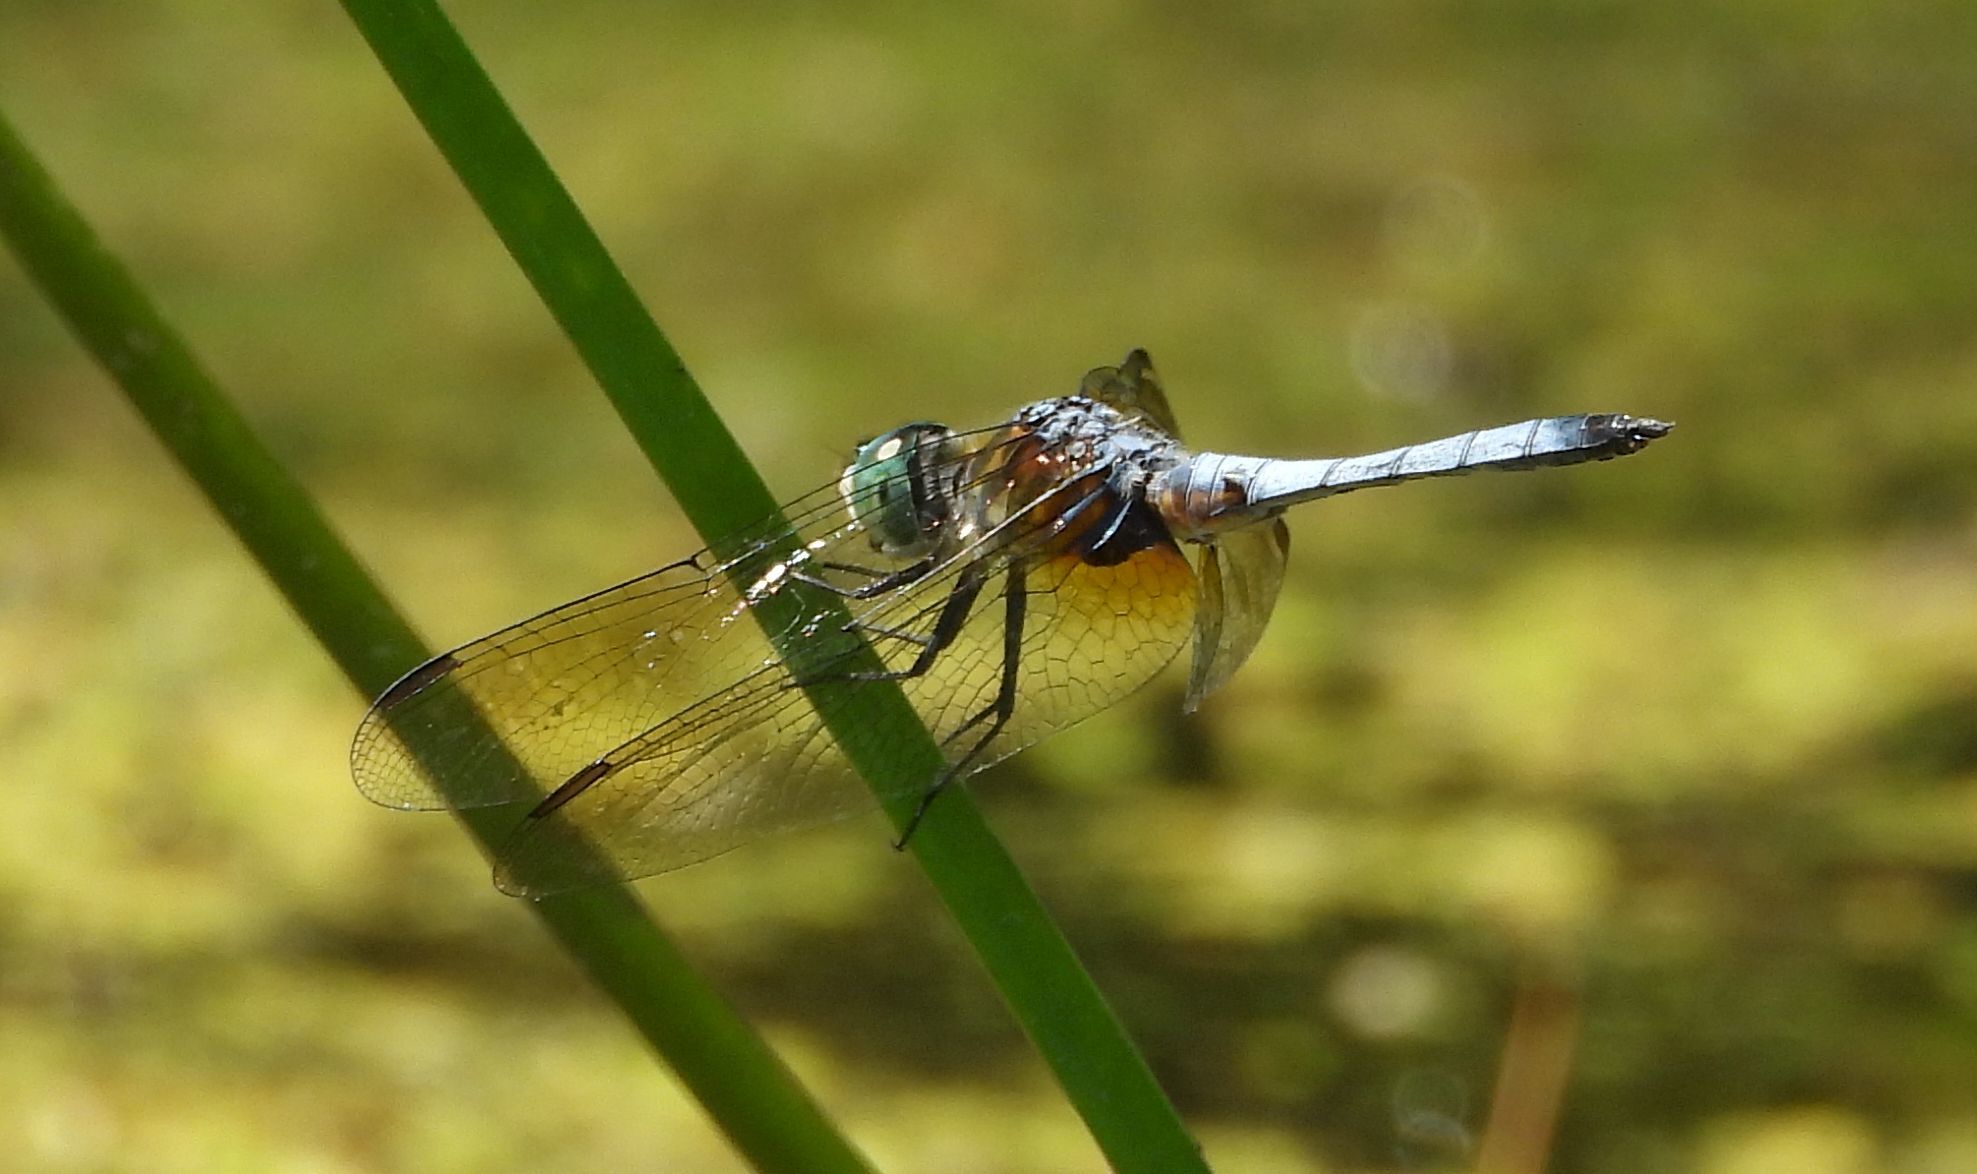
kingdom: Animalia
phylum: Arthropoda
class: Insecta
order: Odonata
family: Libellulidae
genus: Pachydiplax
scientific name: Pachydiplax longipennis
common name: Blue dasher
